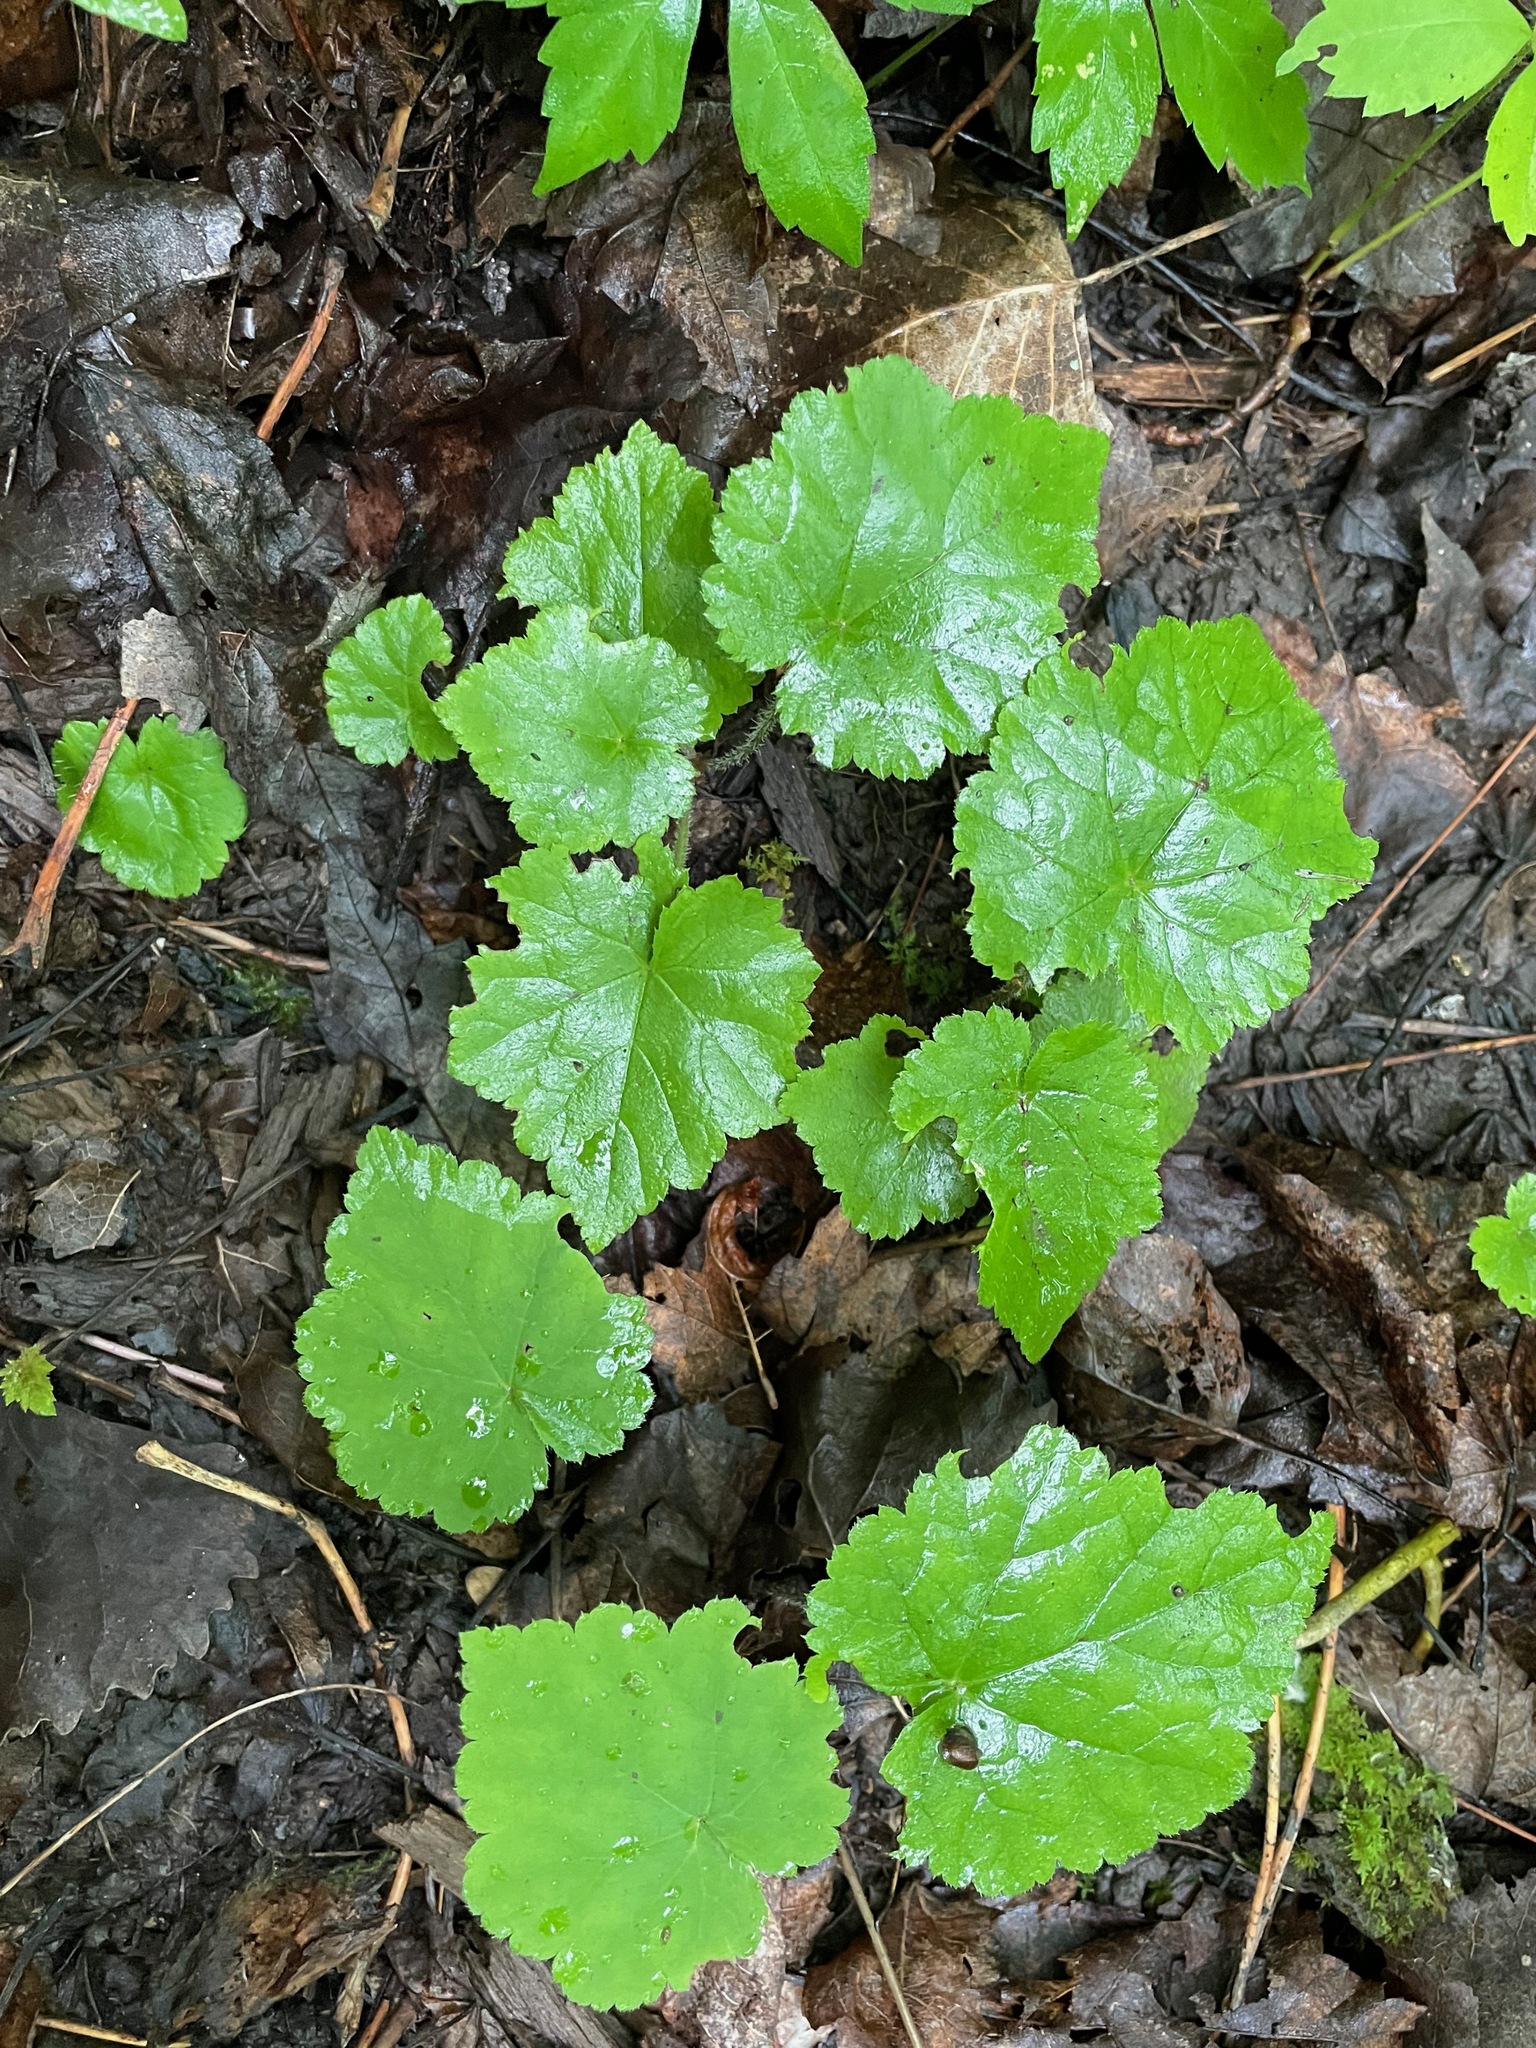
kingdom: Plantae
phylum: Tracheophyta
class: Magnoliopsida
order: Saxifragales
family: Saxifragaceae
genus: Tiarella
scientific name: Tiarella stolonifera
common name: Stoloniferous foamflower
